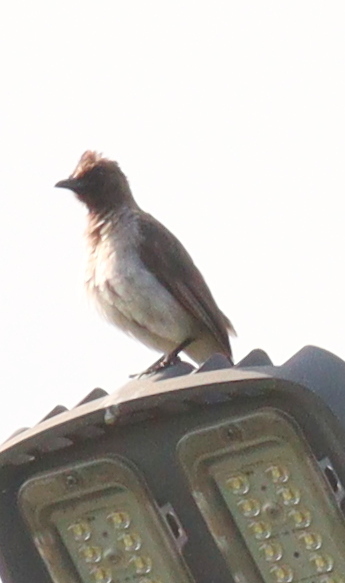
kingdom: Animalia
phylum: Chordata
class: Aves
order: Passeriformes
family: Pycnonotidae
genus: Pycnonotus
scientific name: Pycnonotus barbatus
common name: Common bulbul
